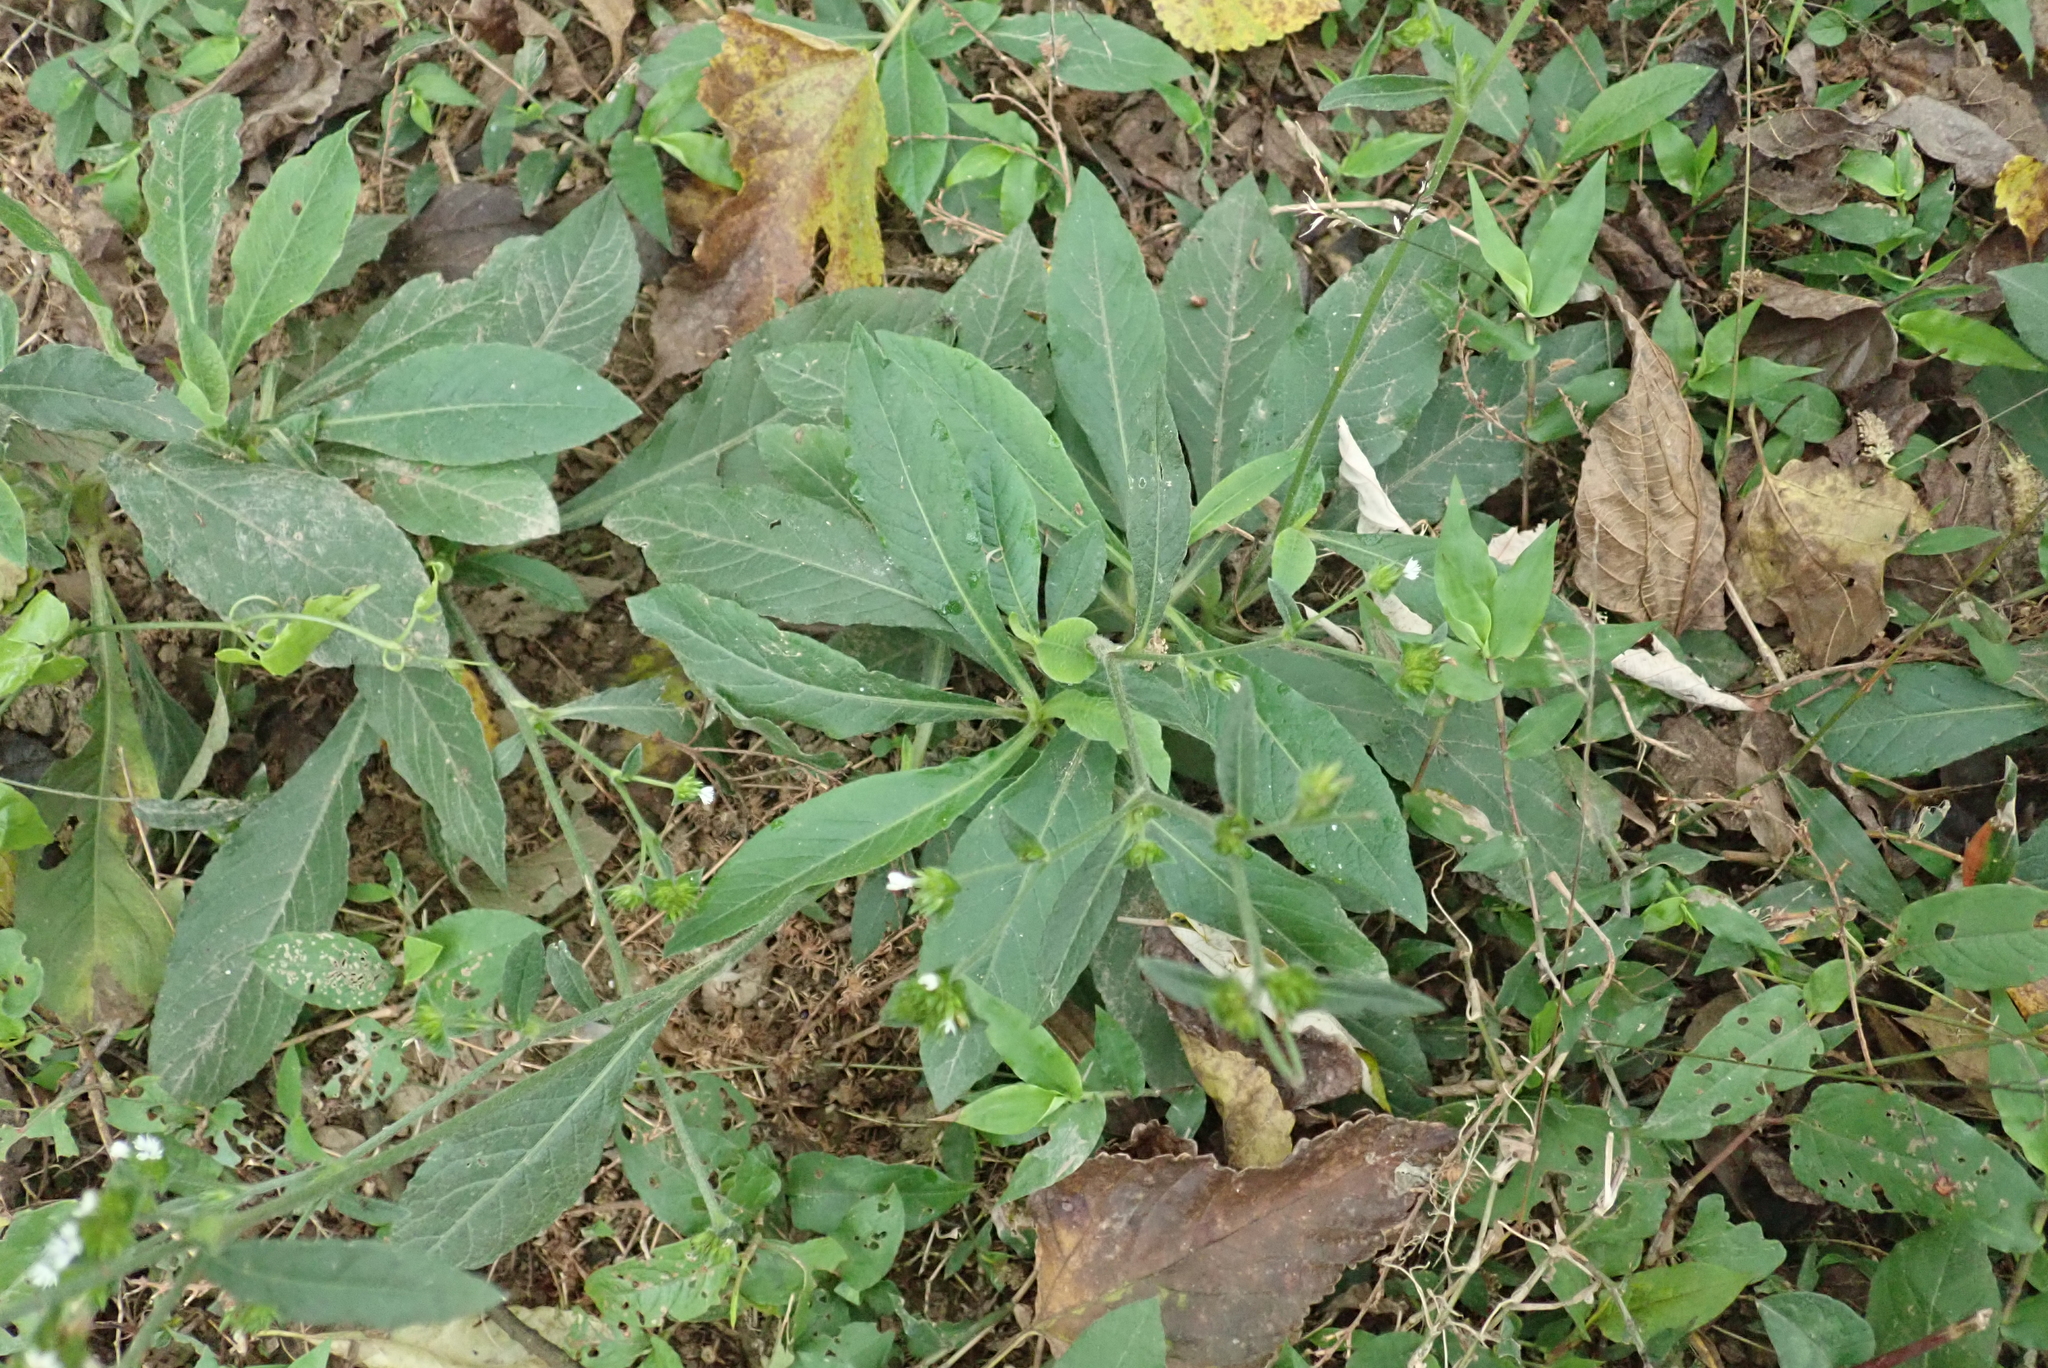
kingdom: Plantae
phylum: Tracheophyta
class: Magnoliopsida
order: Asterales
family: Asteraceae
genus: Elephantopus
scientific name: Elephantopus mollis
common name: Soft elephantsfoot
